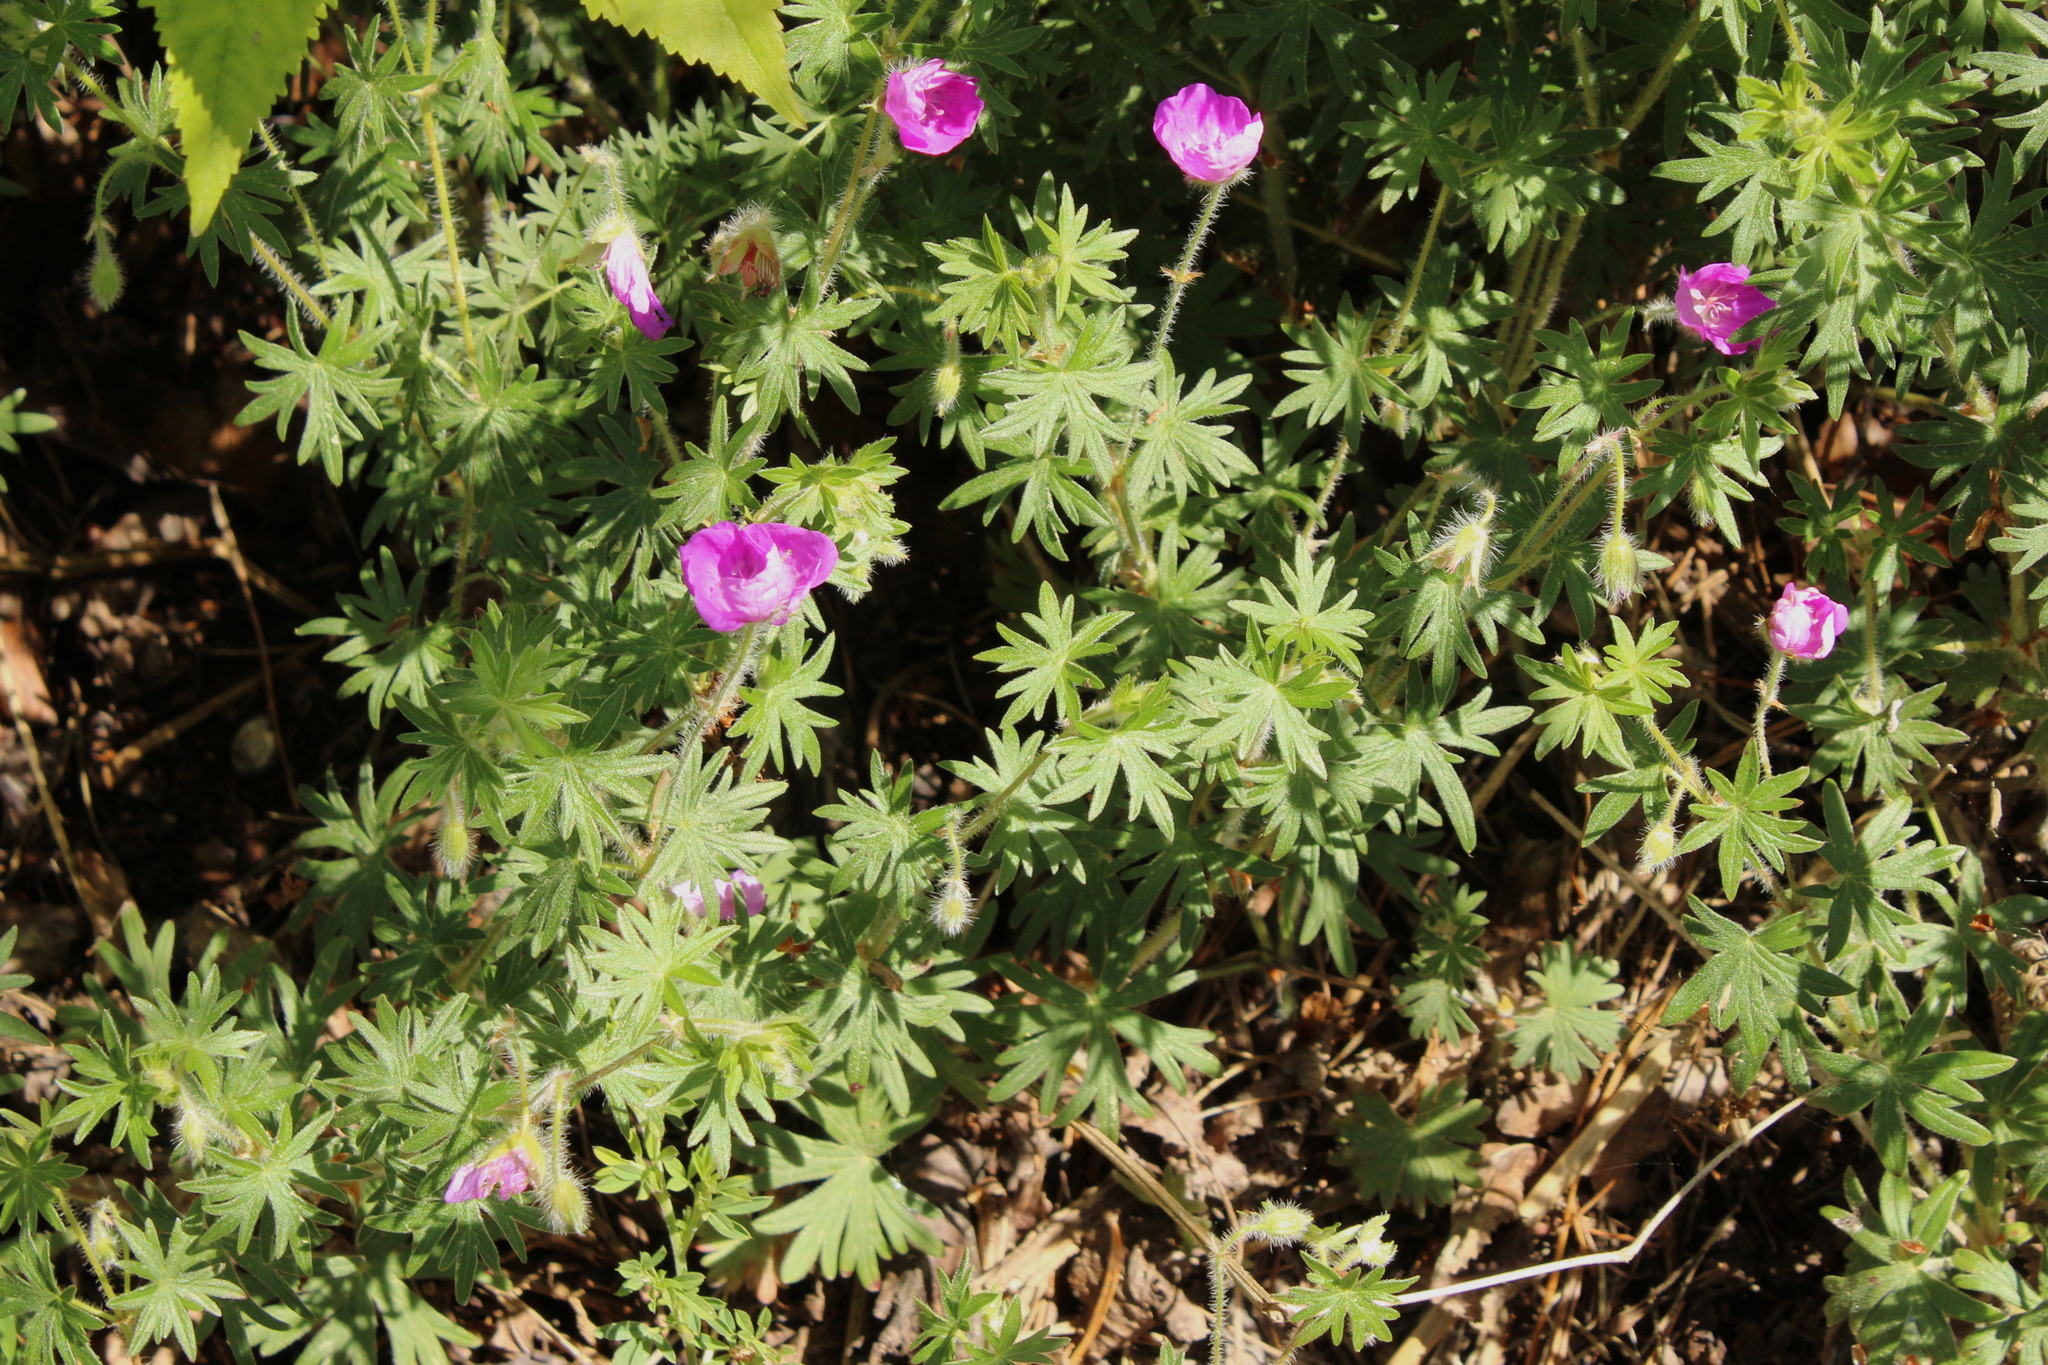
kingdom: Plantae
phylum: Tracheophyta
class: Magnoliopsida
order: Geraniales
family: Geraniaceae
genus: Geranium
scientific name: Geranium sanguineum
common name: Bloody crane's-bill
